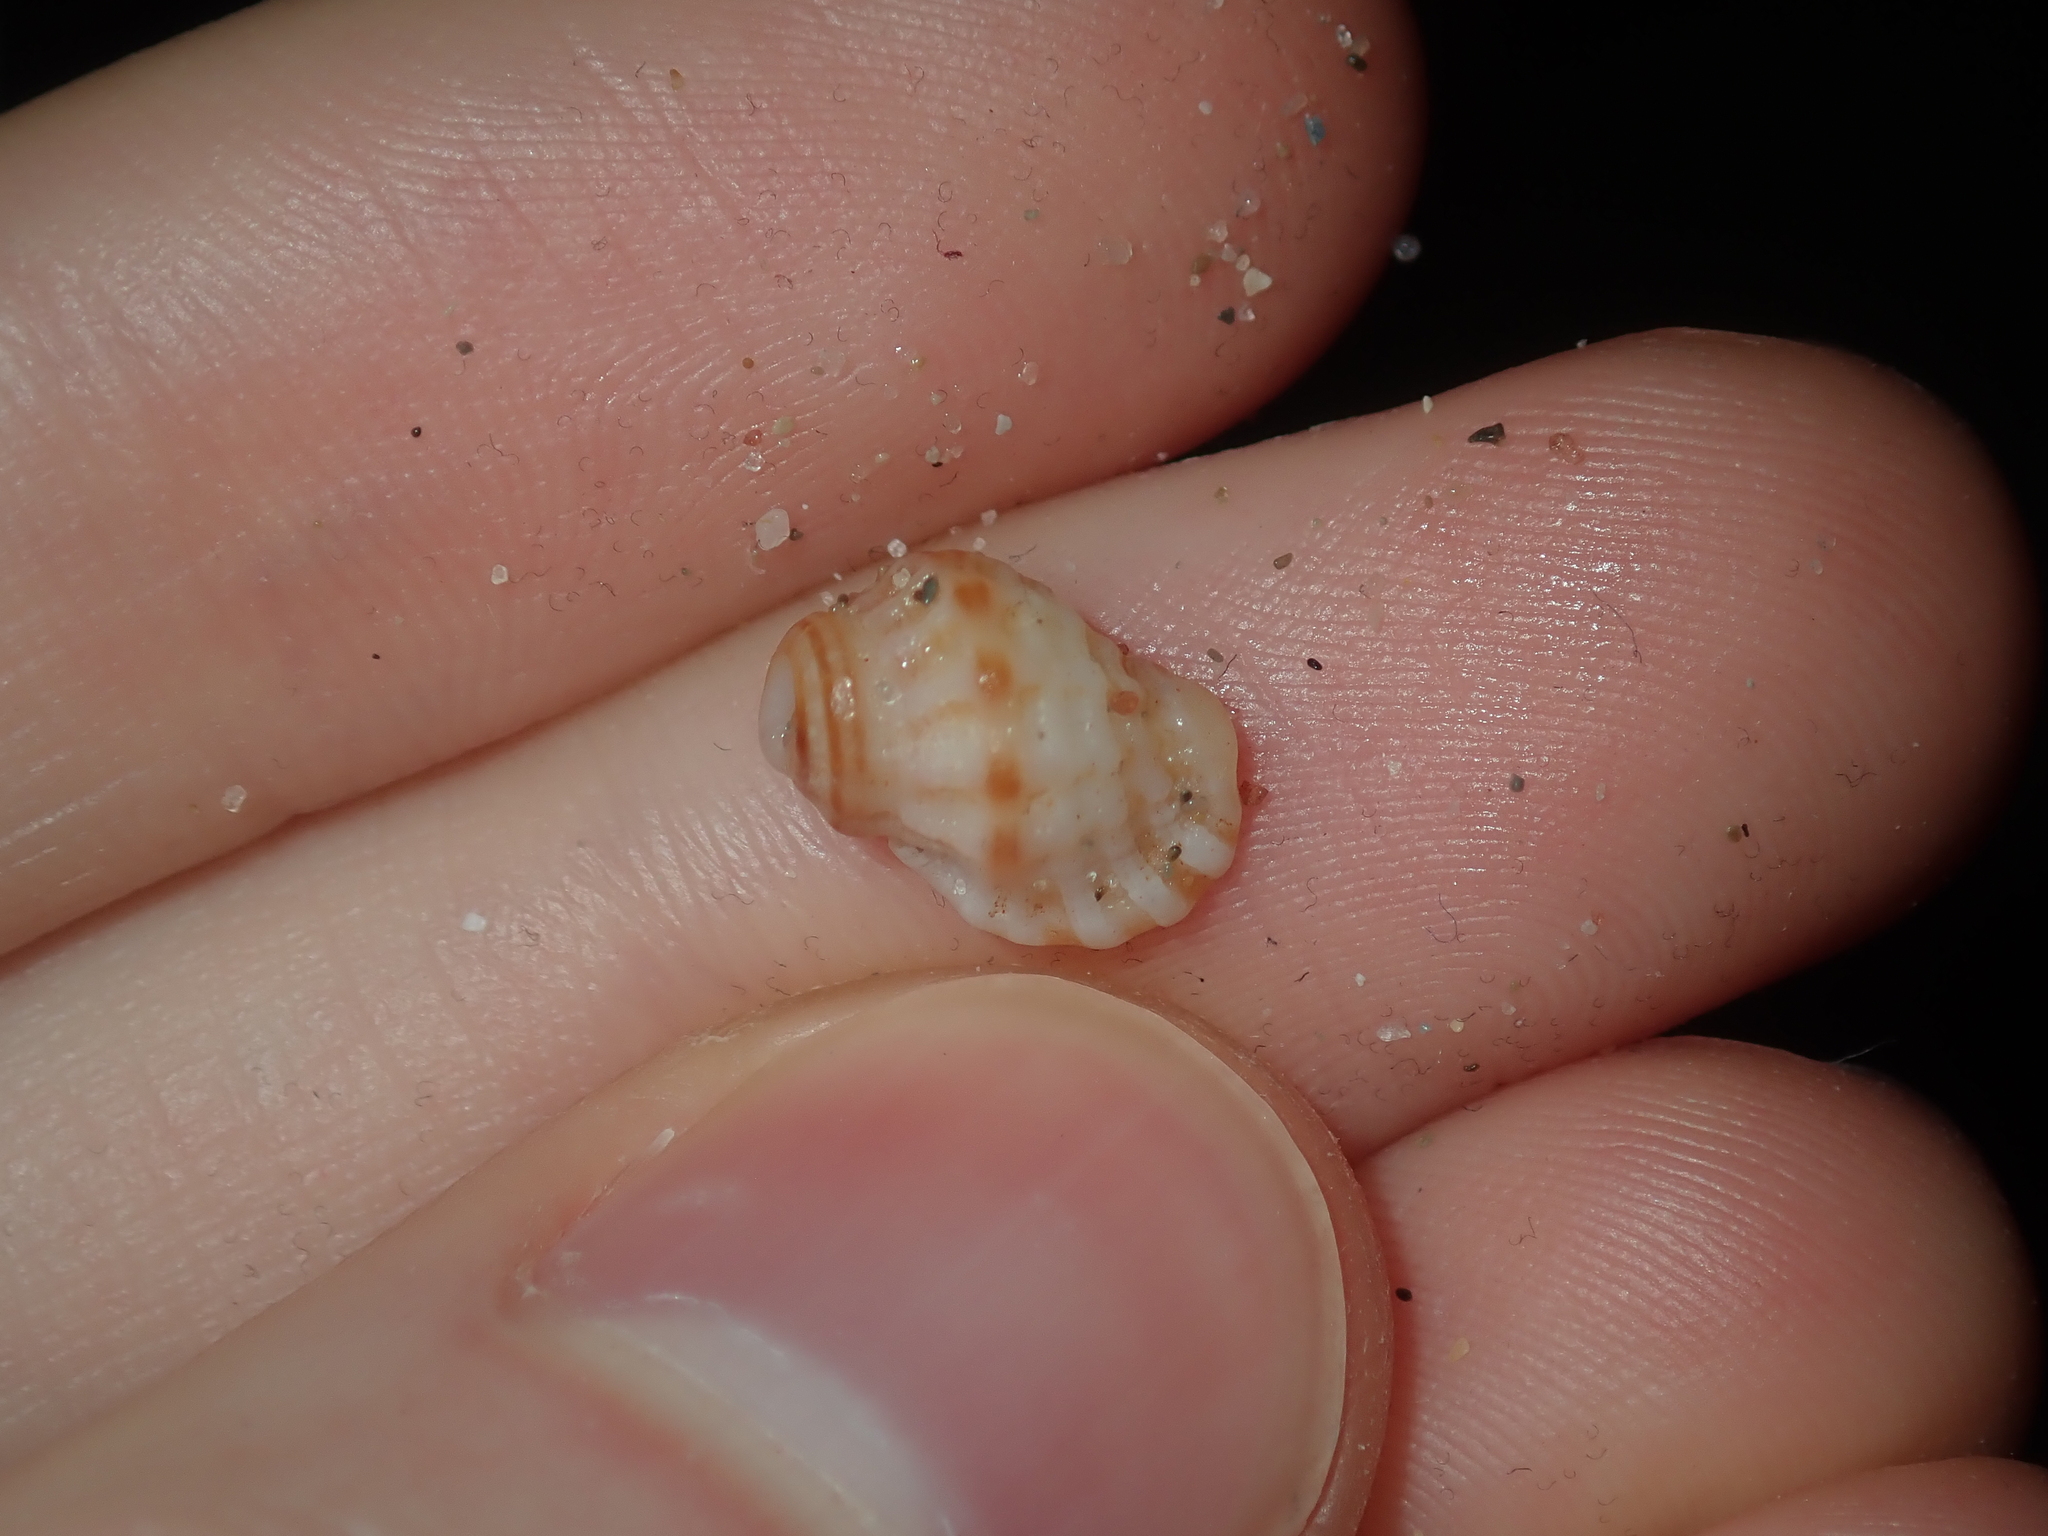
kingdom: Animalia
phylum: Mollusca
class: Gastropoda
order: Littorinimorpha
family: Cymatiidae
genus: Turritriton
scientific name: Turritriton labiosus
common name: Lip triton
